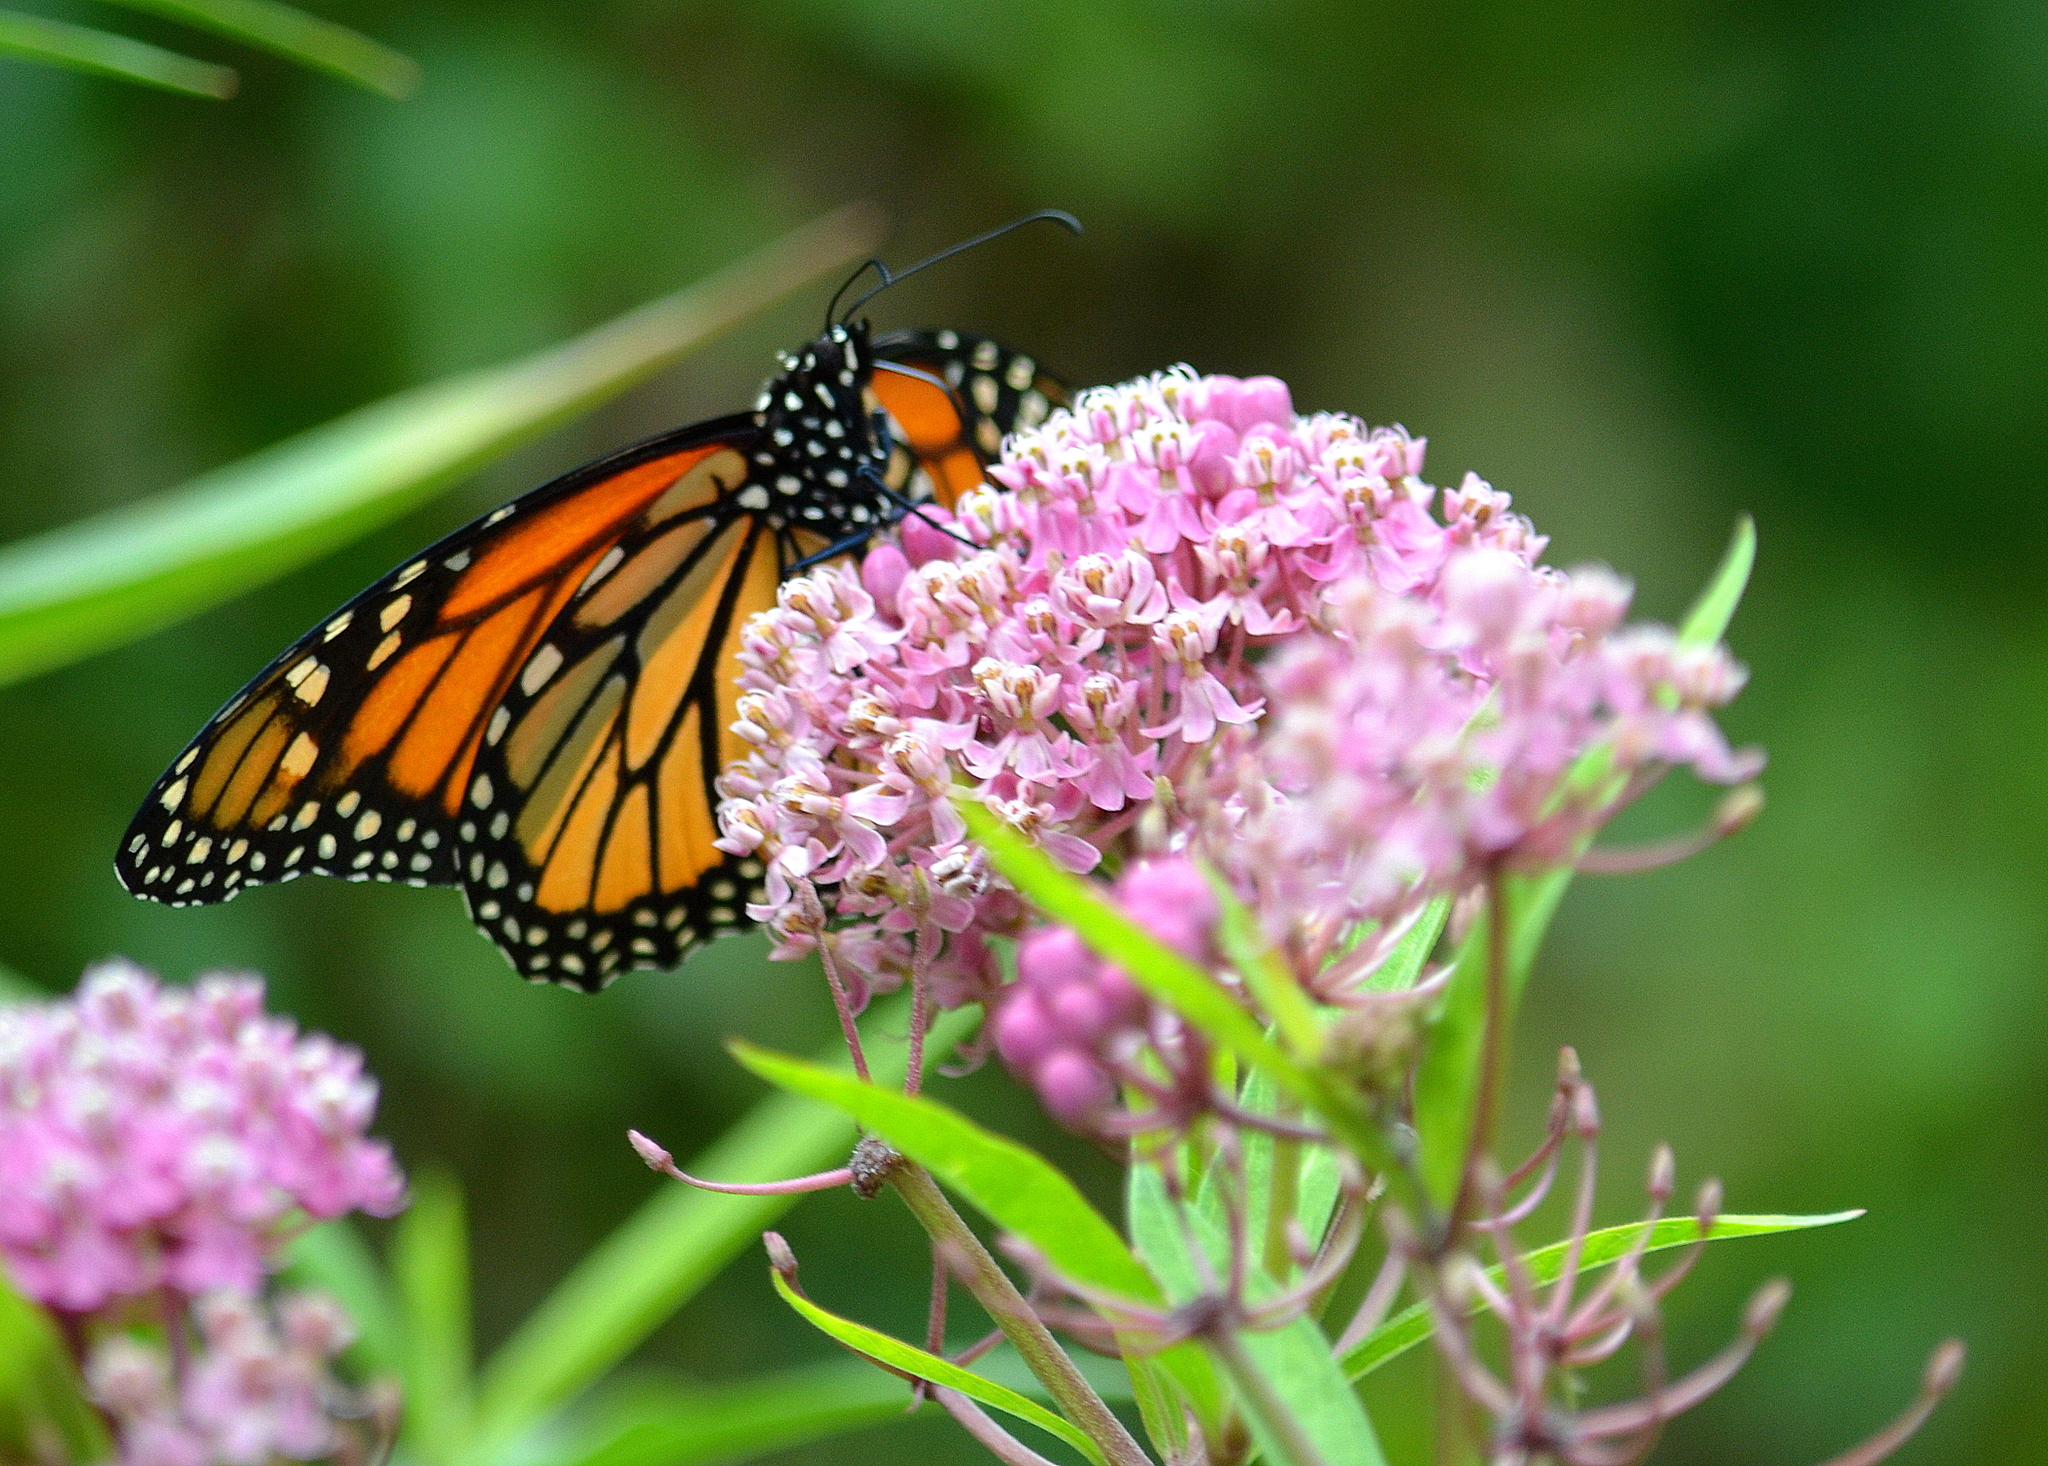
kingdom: Animalia
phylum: Arthropoda
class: Insecta
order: Lepidoptera
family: Nymphalidae
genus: Danaus
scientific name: Danaus plexippus
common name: Monarch
